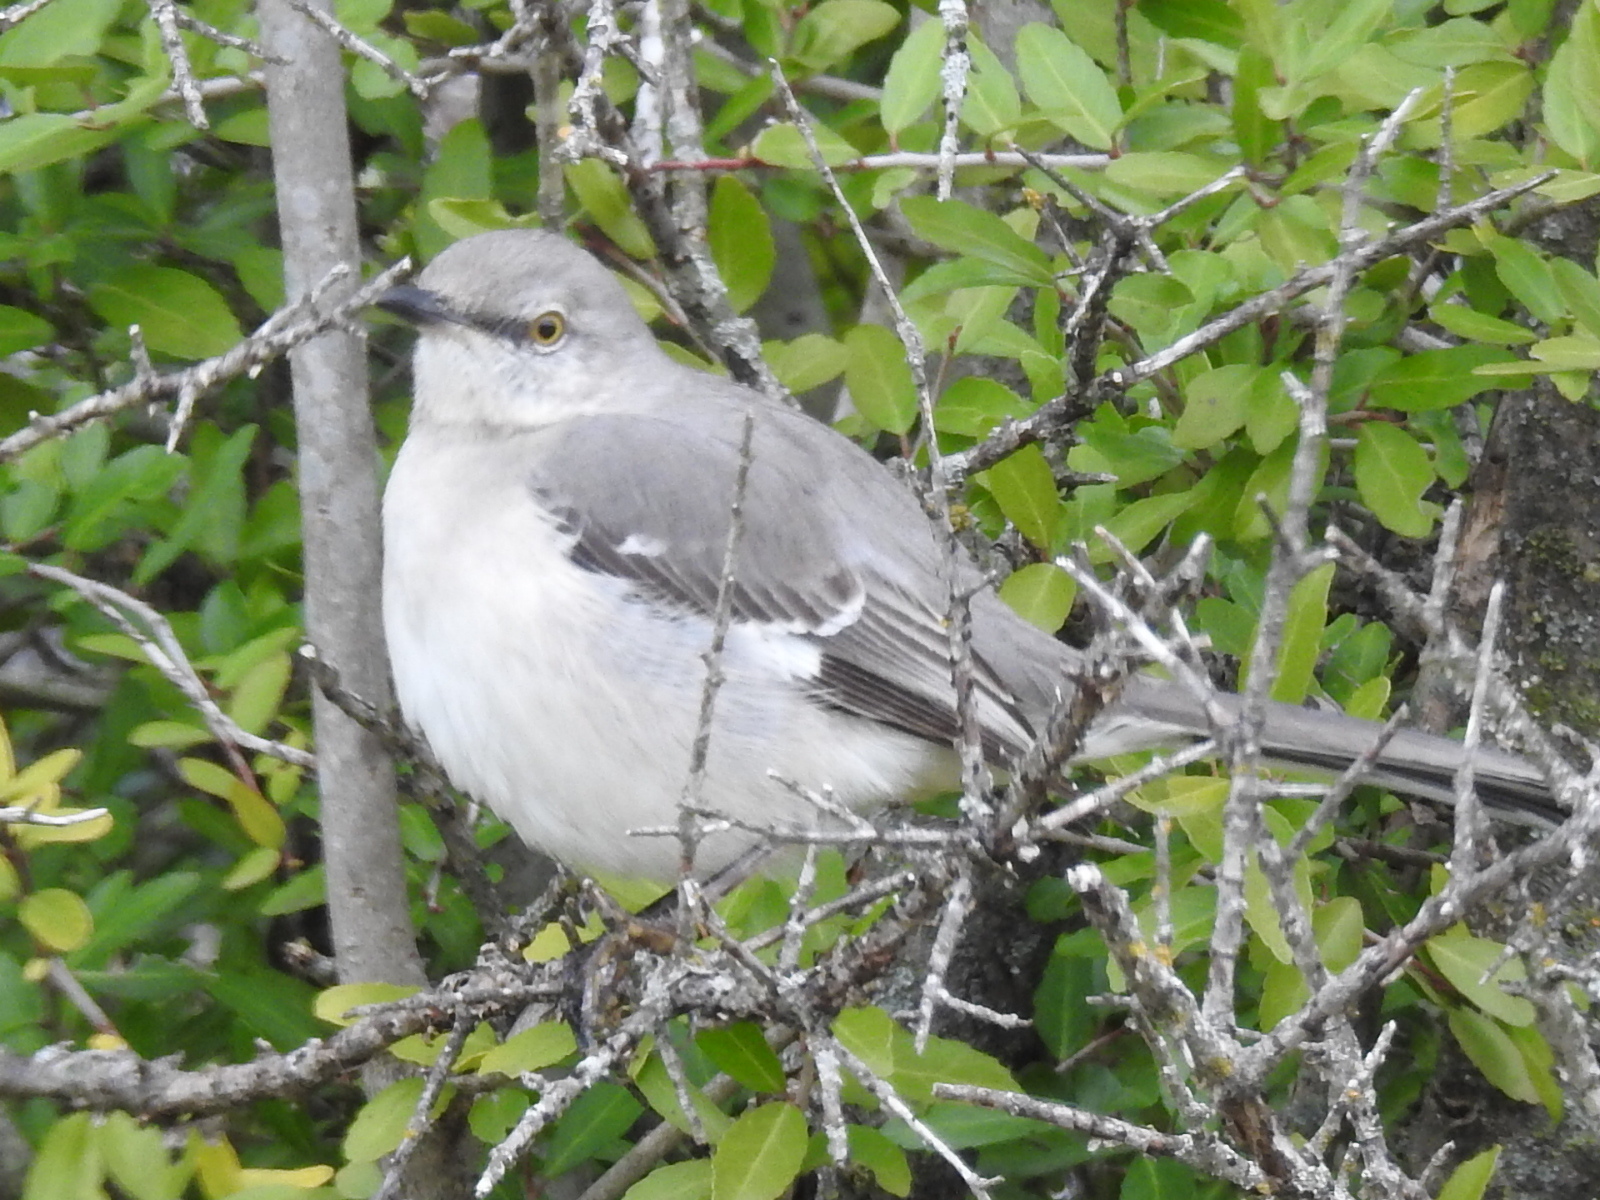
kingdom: Animalia
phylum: Chordata
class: Aves
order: Passeriformes
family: Mimidae
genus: Mimus
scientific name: Mimus polyglottos
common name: Northern mockingbird
